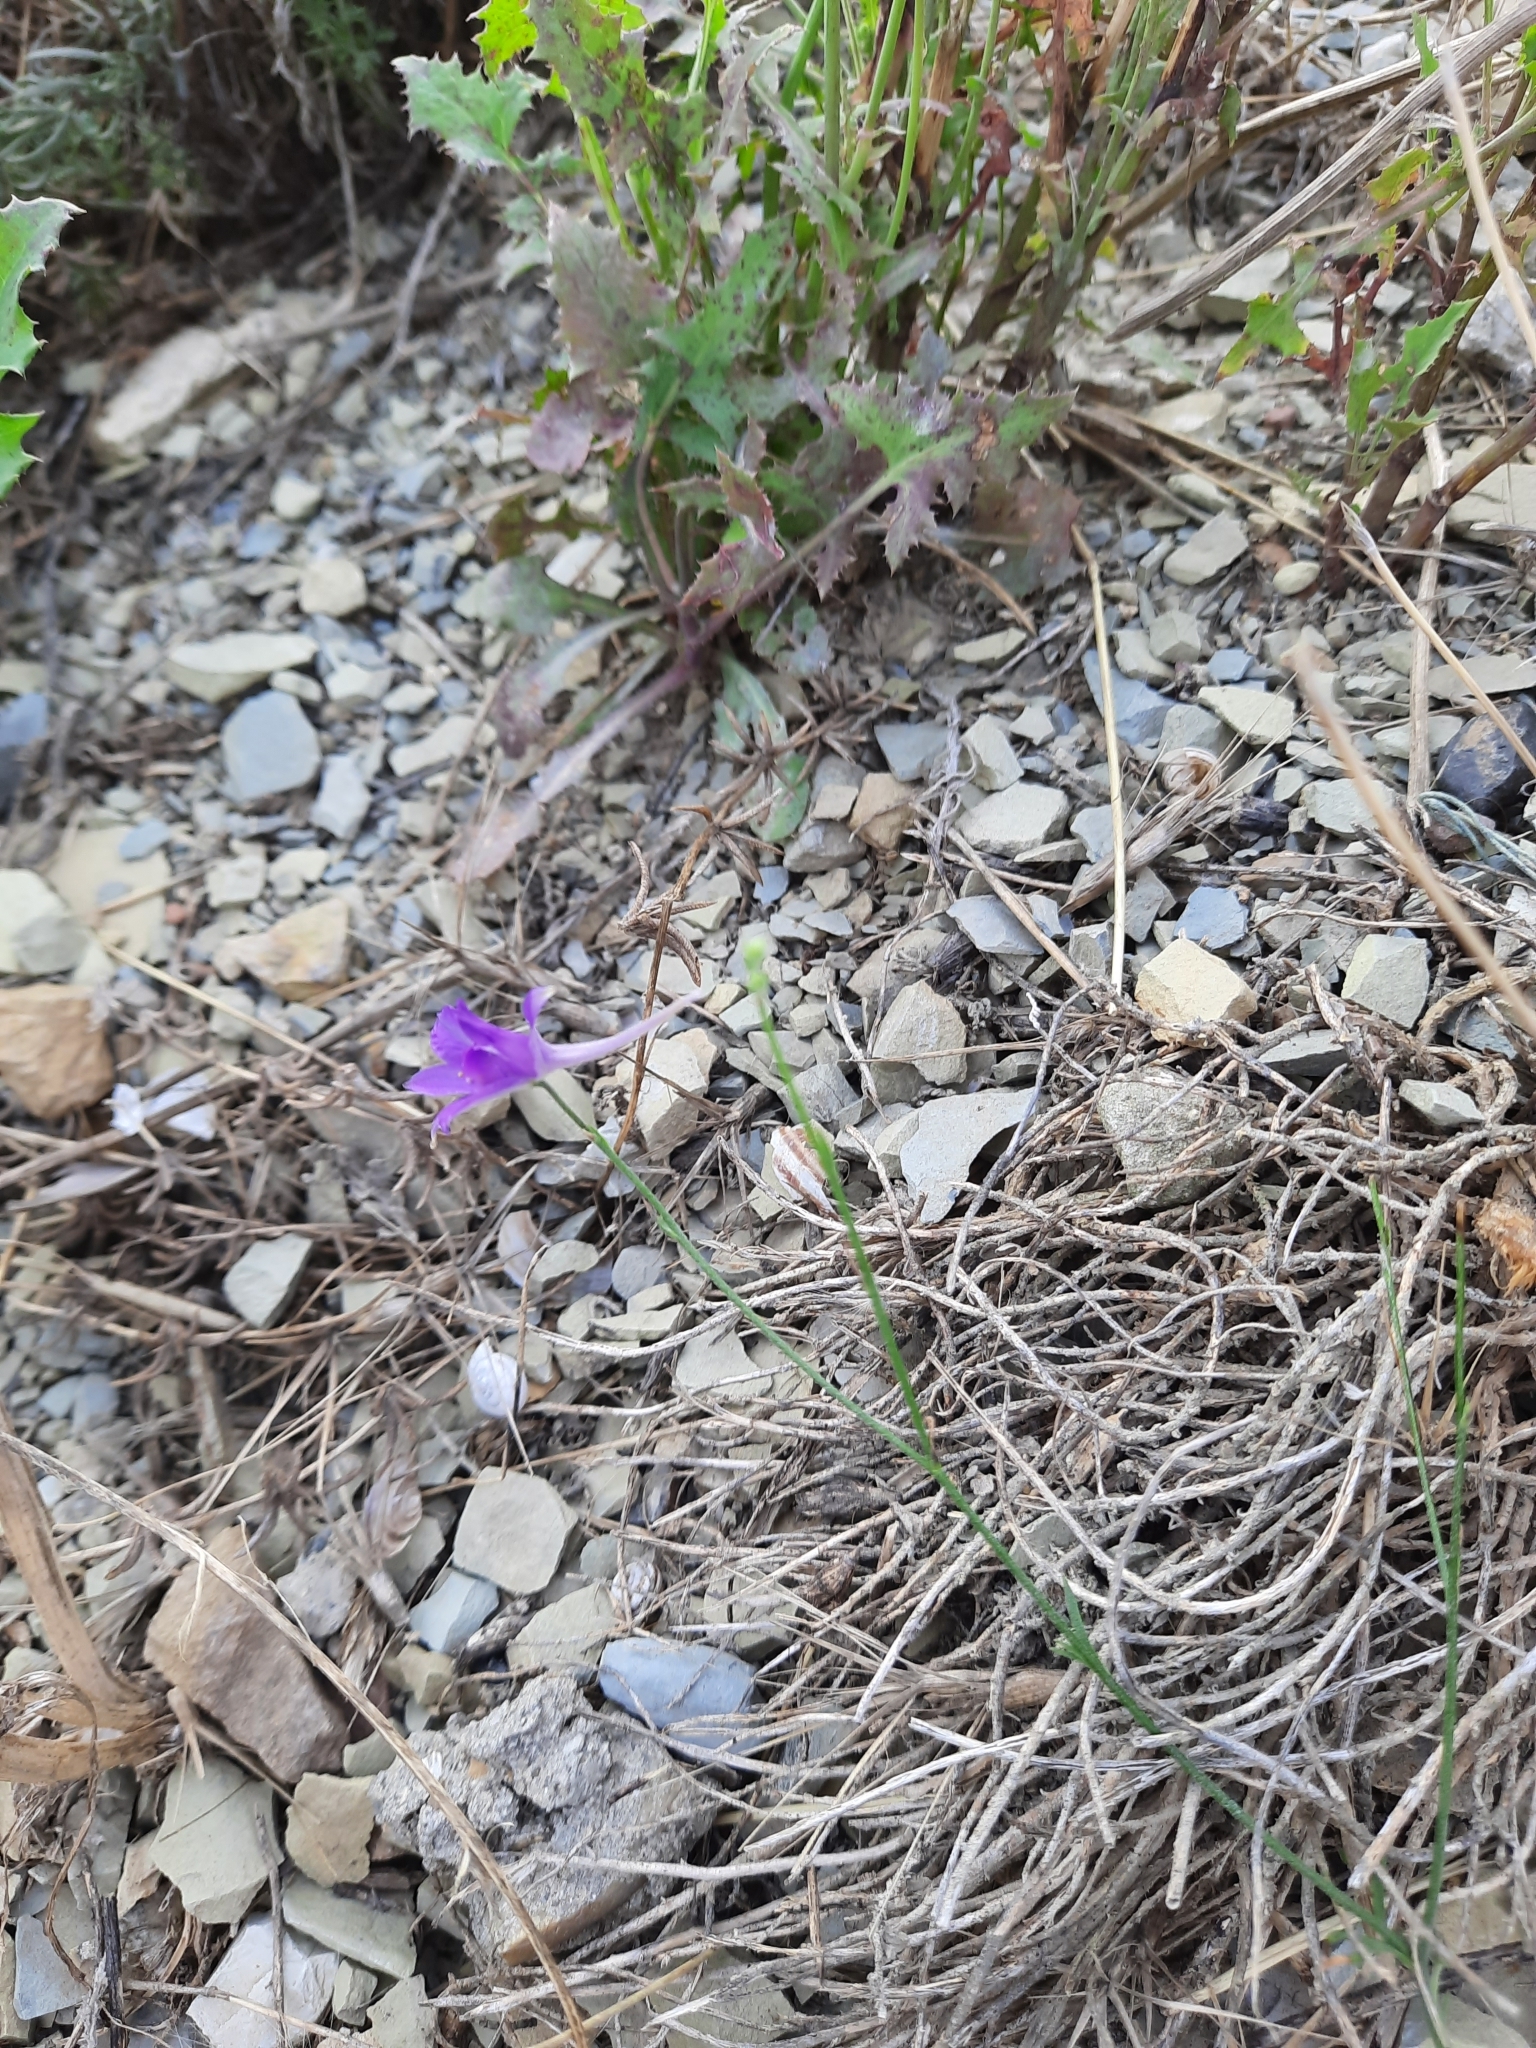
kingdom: Plantae
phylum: Tracheophyta
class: Magnoliopsida
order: Ranunculales
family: Ranunculaceae
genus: Delphinium
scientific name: Delphinium consolida
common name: Branching larkspur
